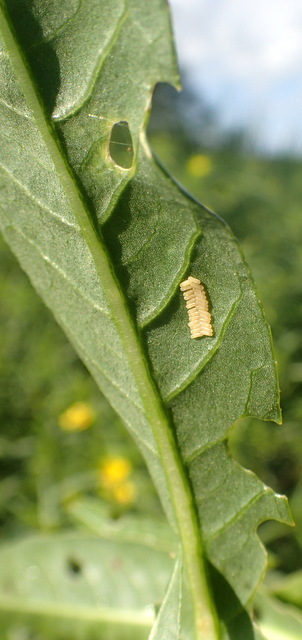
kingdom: Animalia
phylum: Arthropoda
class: Insecta
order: Coleoptera
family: Chrysomelidae
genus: Agasicles
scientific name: Agasicles hygrophila
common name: Alligatorweed flea beetle
